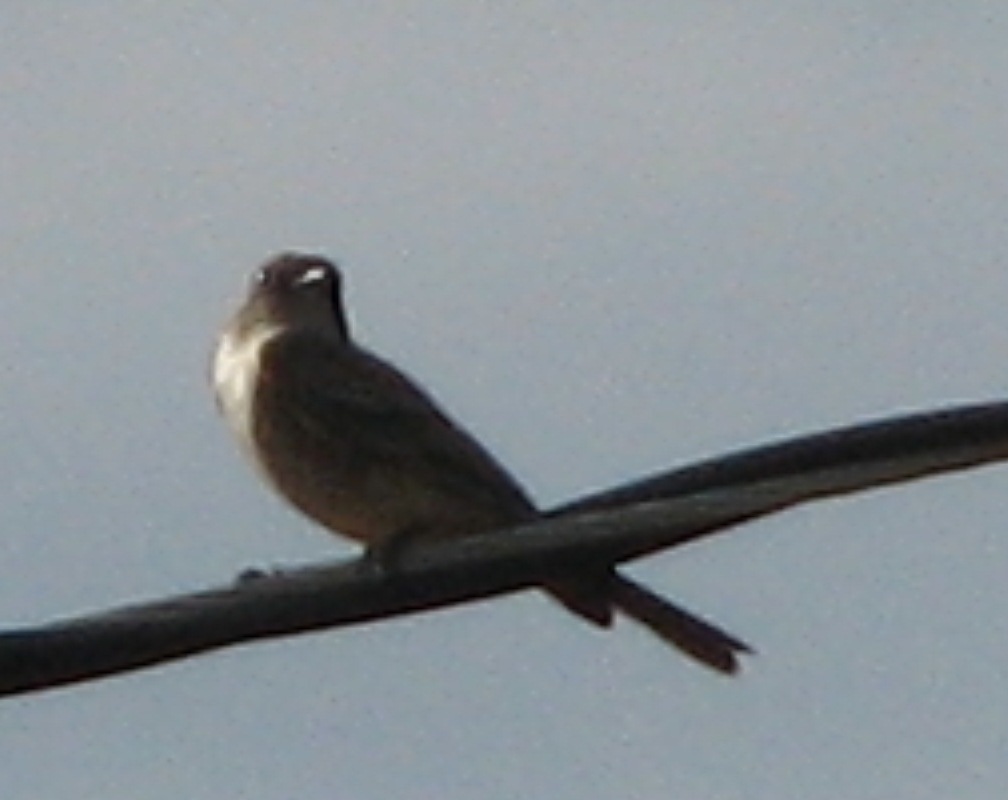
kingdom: Animalia
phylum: Chordata
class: Aves
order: Passeriformes
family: Tyrannidae
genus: Contopus
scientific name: Contopus sordidulus
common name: Western wood-pewee
